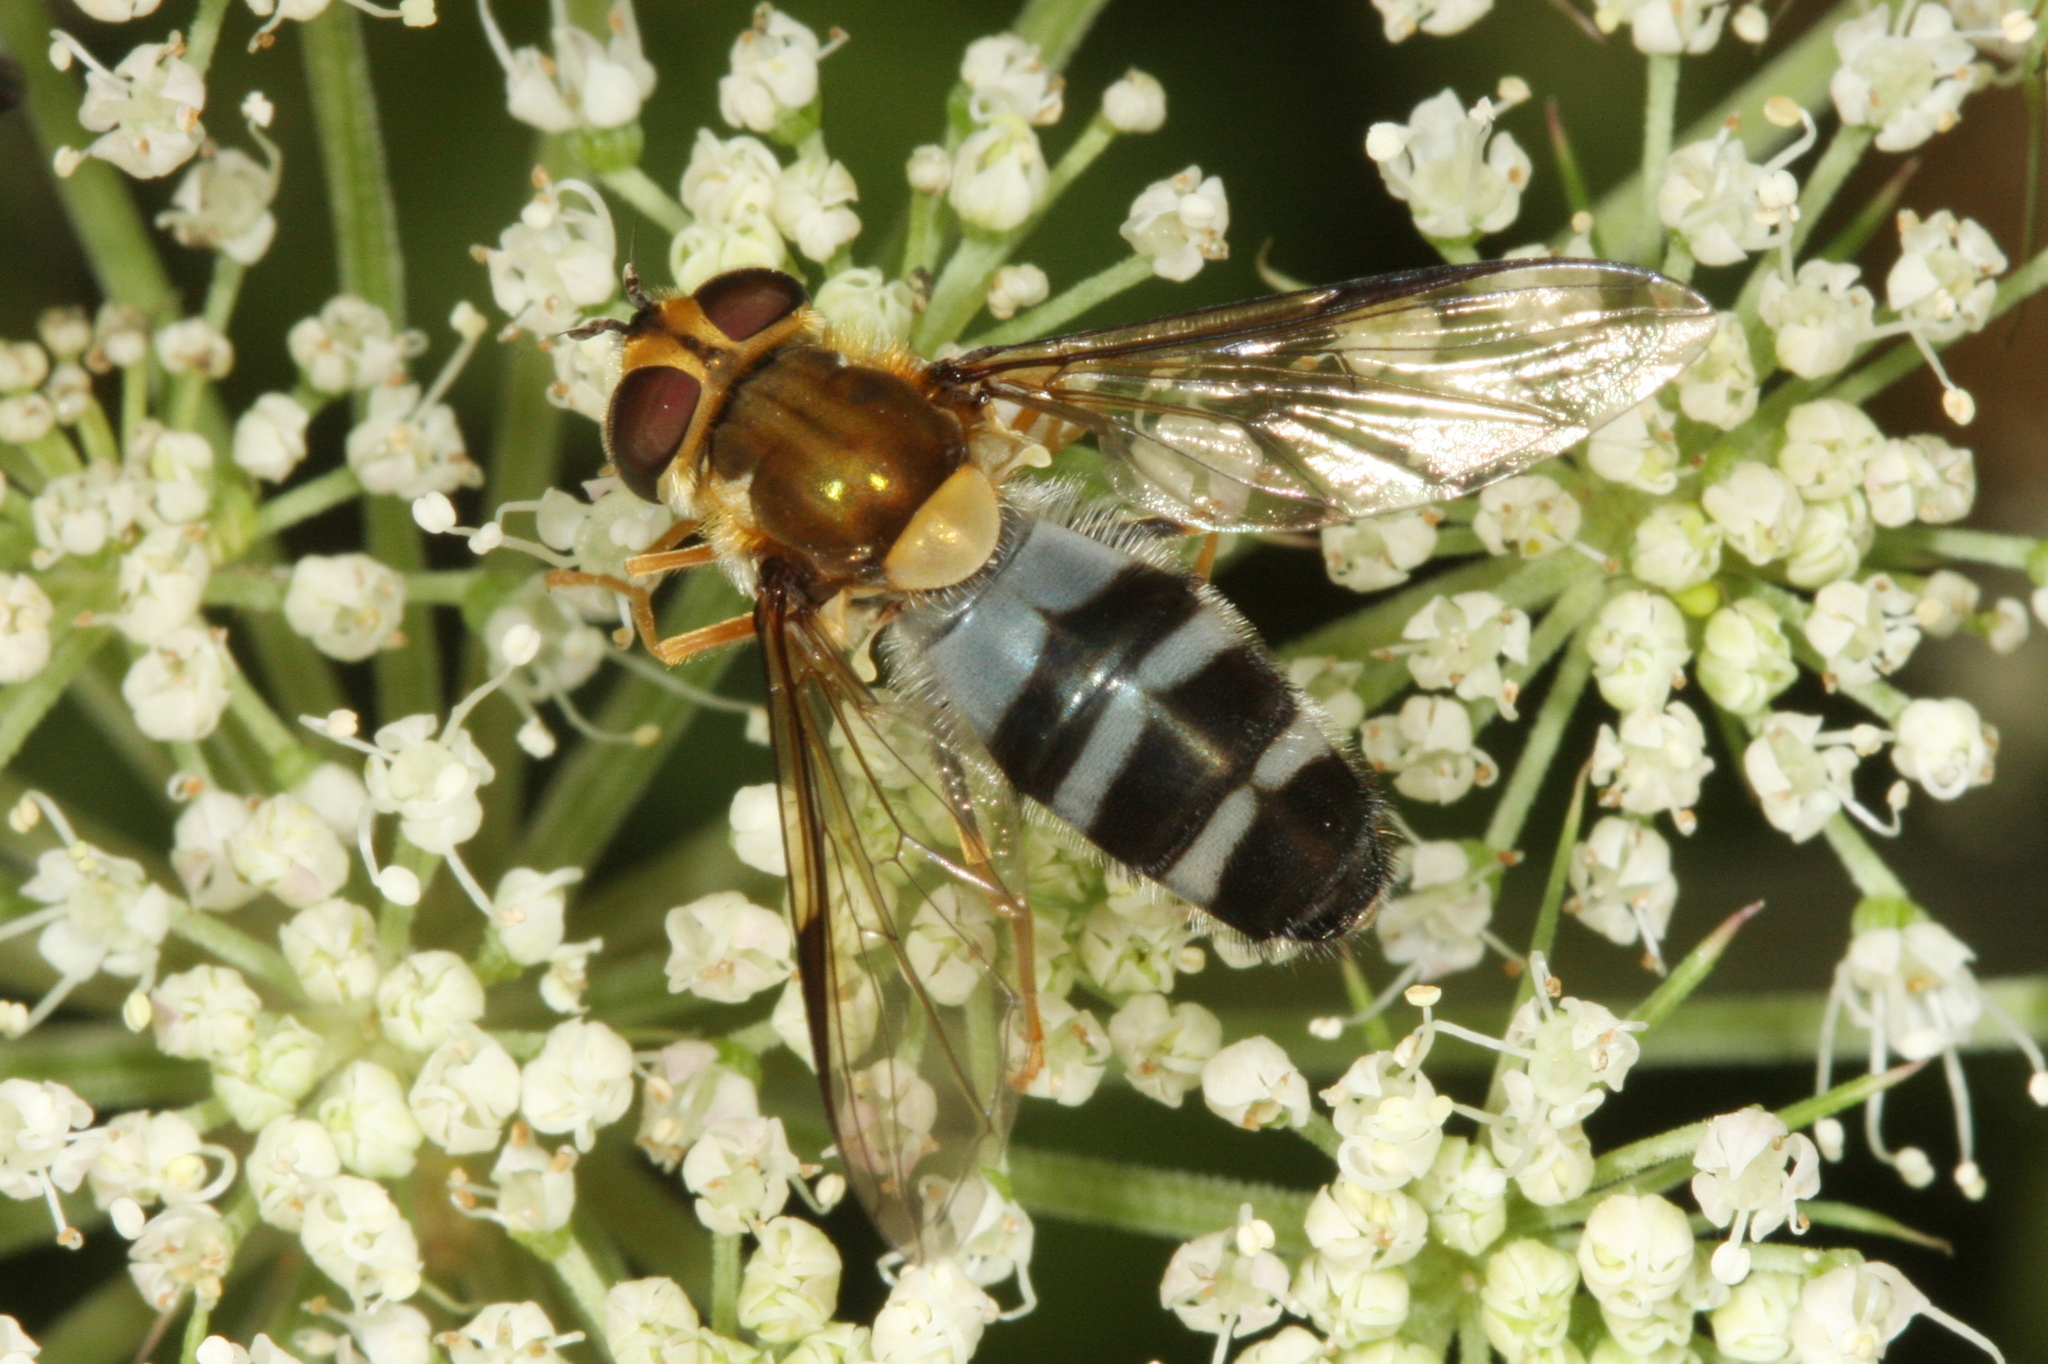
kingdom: Animalia
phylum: Arthropoda
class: Insecta
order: Diptera
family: Syrphidae
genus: Leucozona
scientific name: Leucozona glaucia
